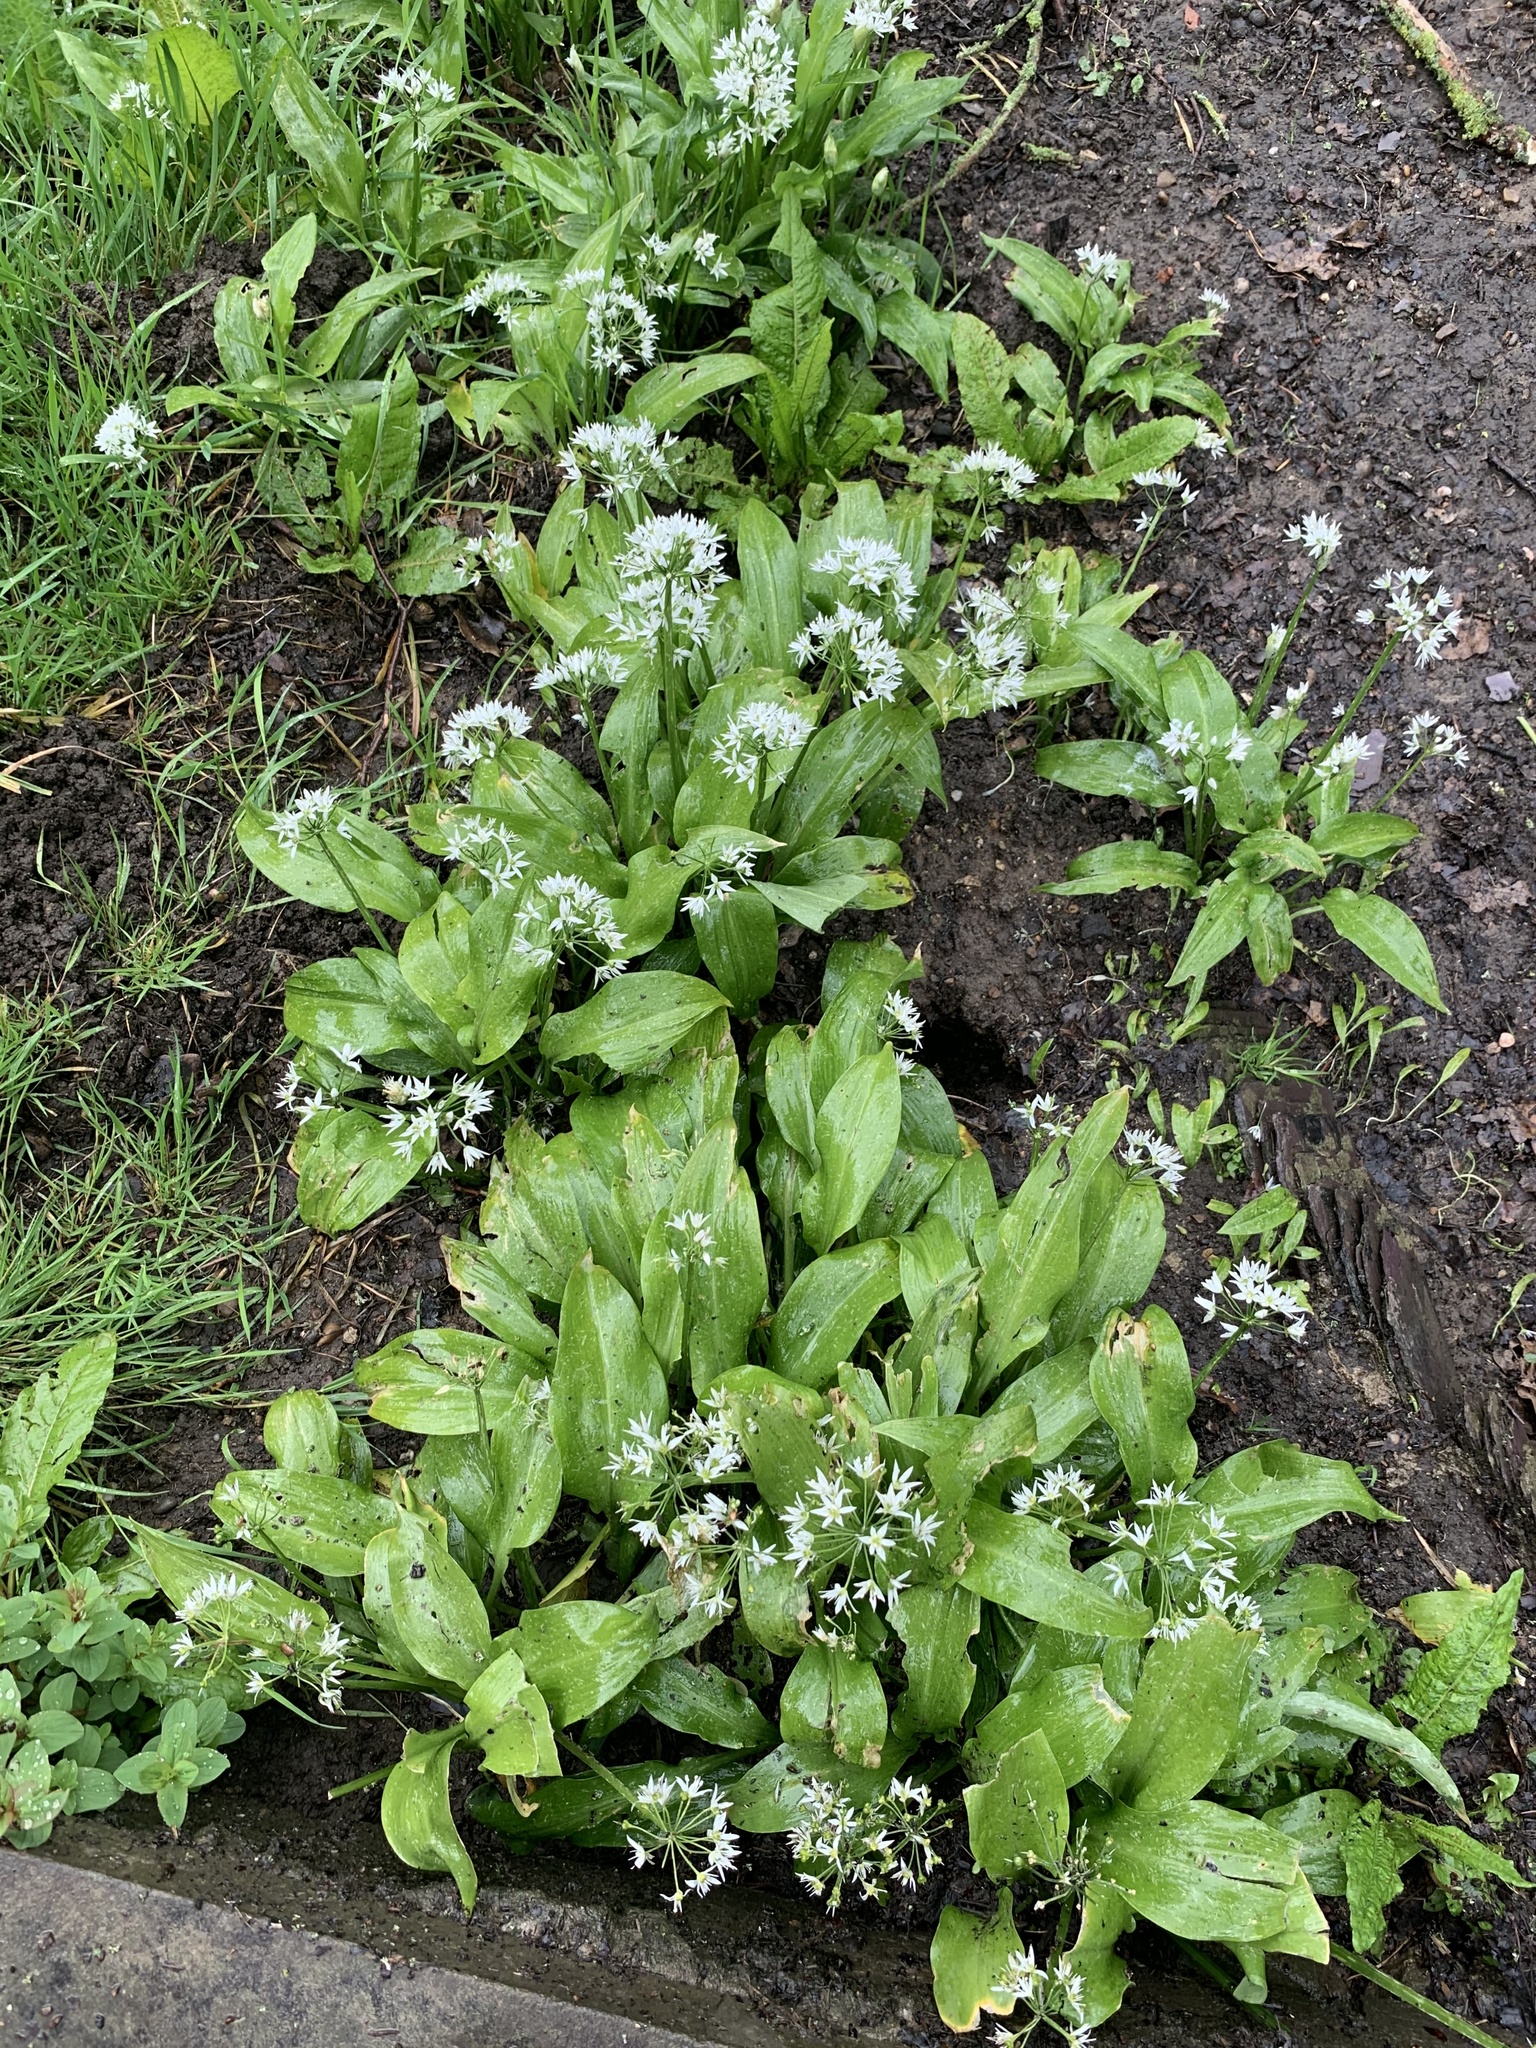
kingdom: Plantae
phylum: Tracheophyta
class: Liliopsida
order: Asparagales
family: Amaryllidaceae
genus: Allium
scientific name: Allium ursinum
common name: Ramsons
